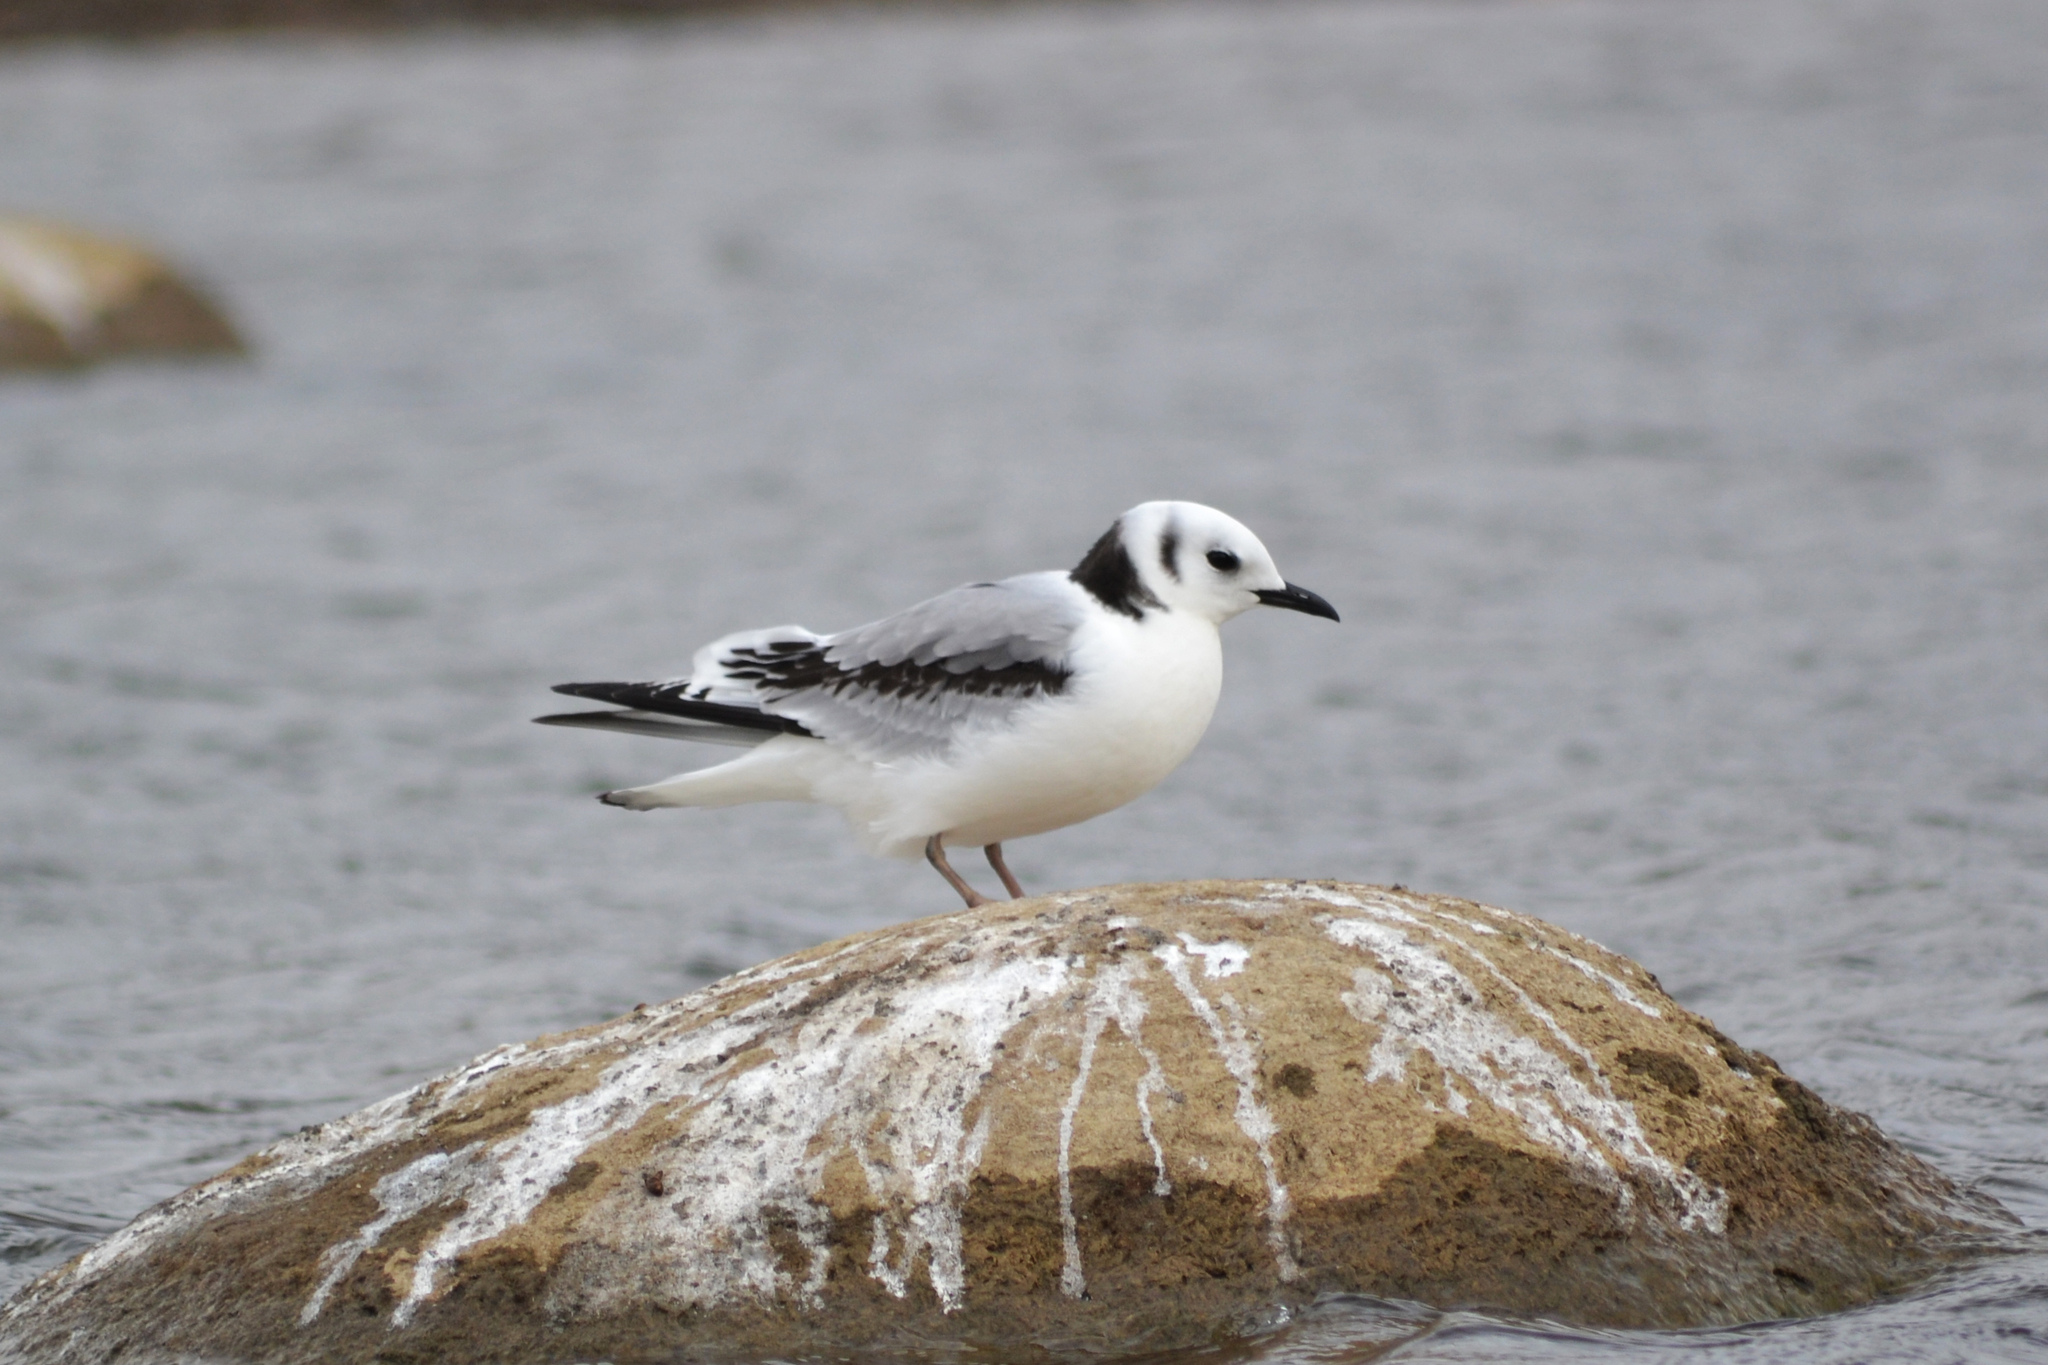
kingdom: Animalia
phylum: Chordata
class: Aves
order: Charadriiformes
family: Laridae
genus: Rissa
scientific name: Rissa tridactyla
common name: Black-legged kittiwake
